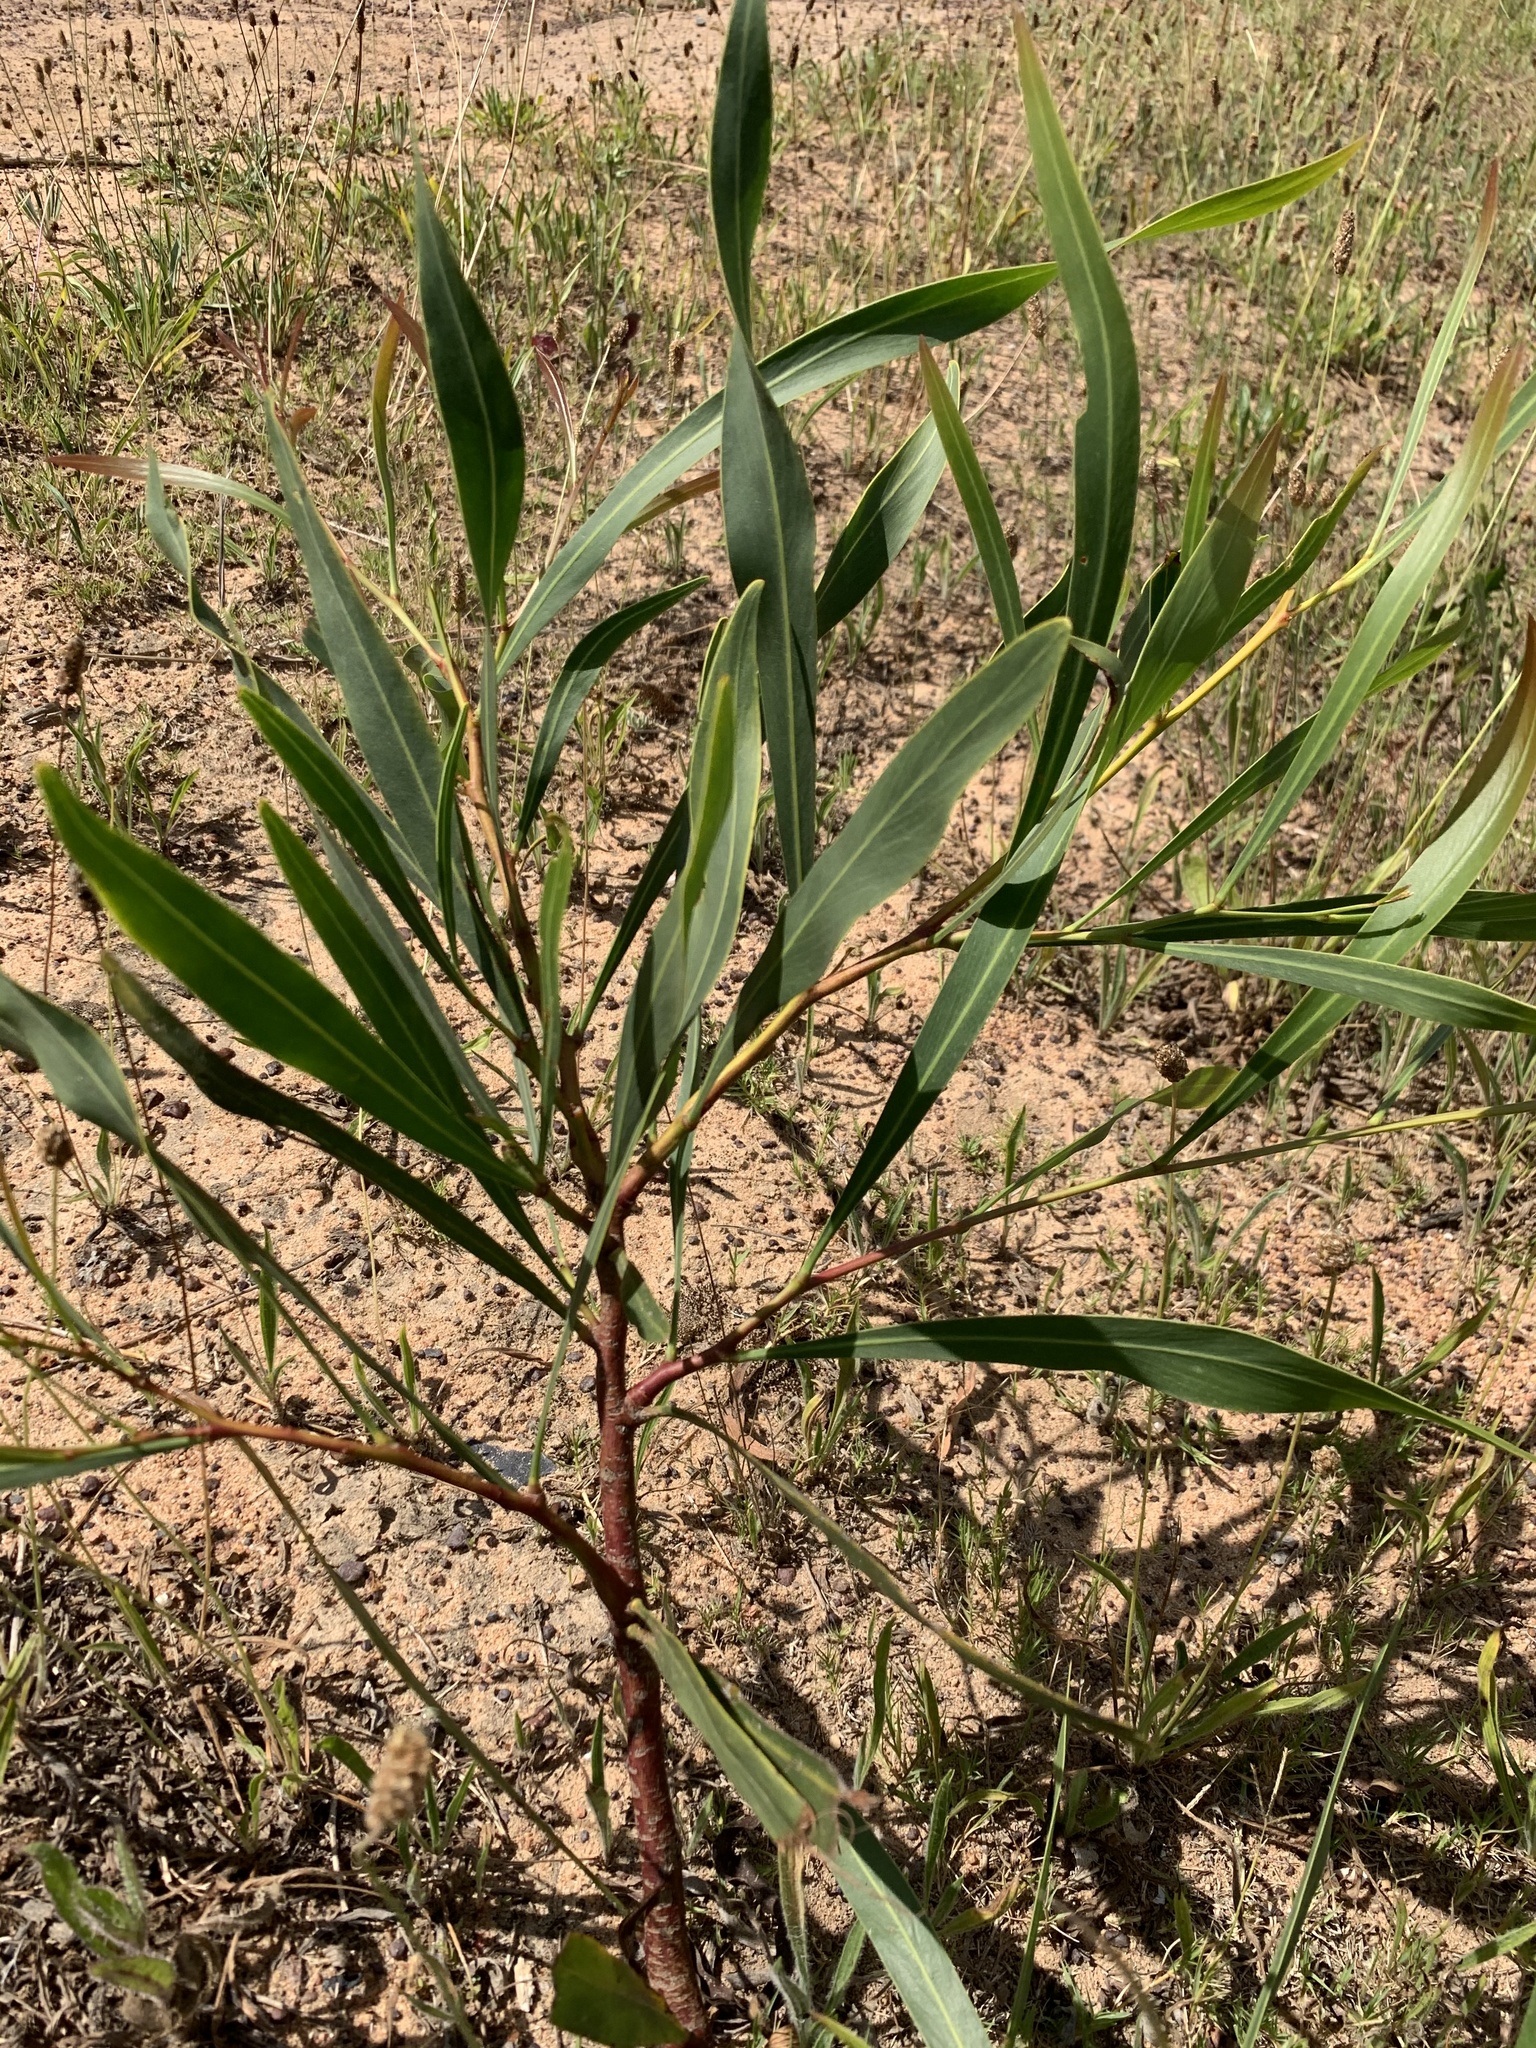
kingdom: Plantae
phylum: Tracheophyta
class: Magnoliopsida
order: Fabales
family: Fabaceae
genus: Acacia
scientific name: Acacia saligna
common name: Orange wattle
